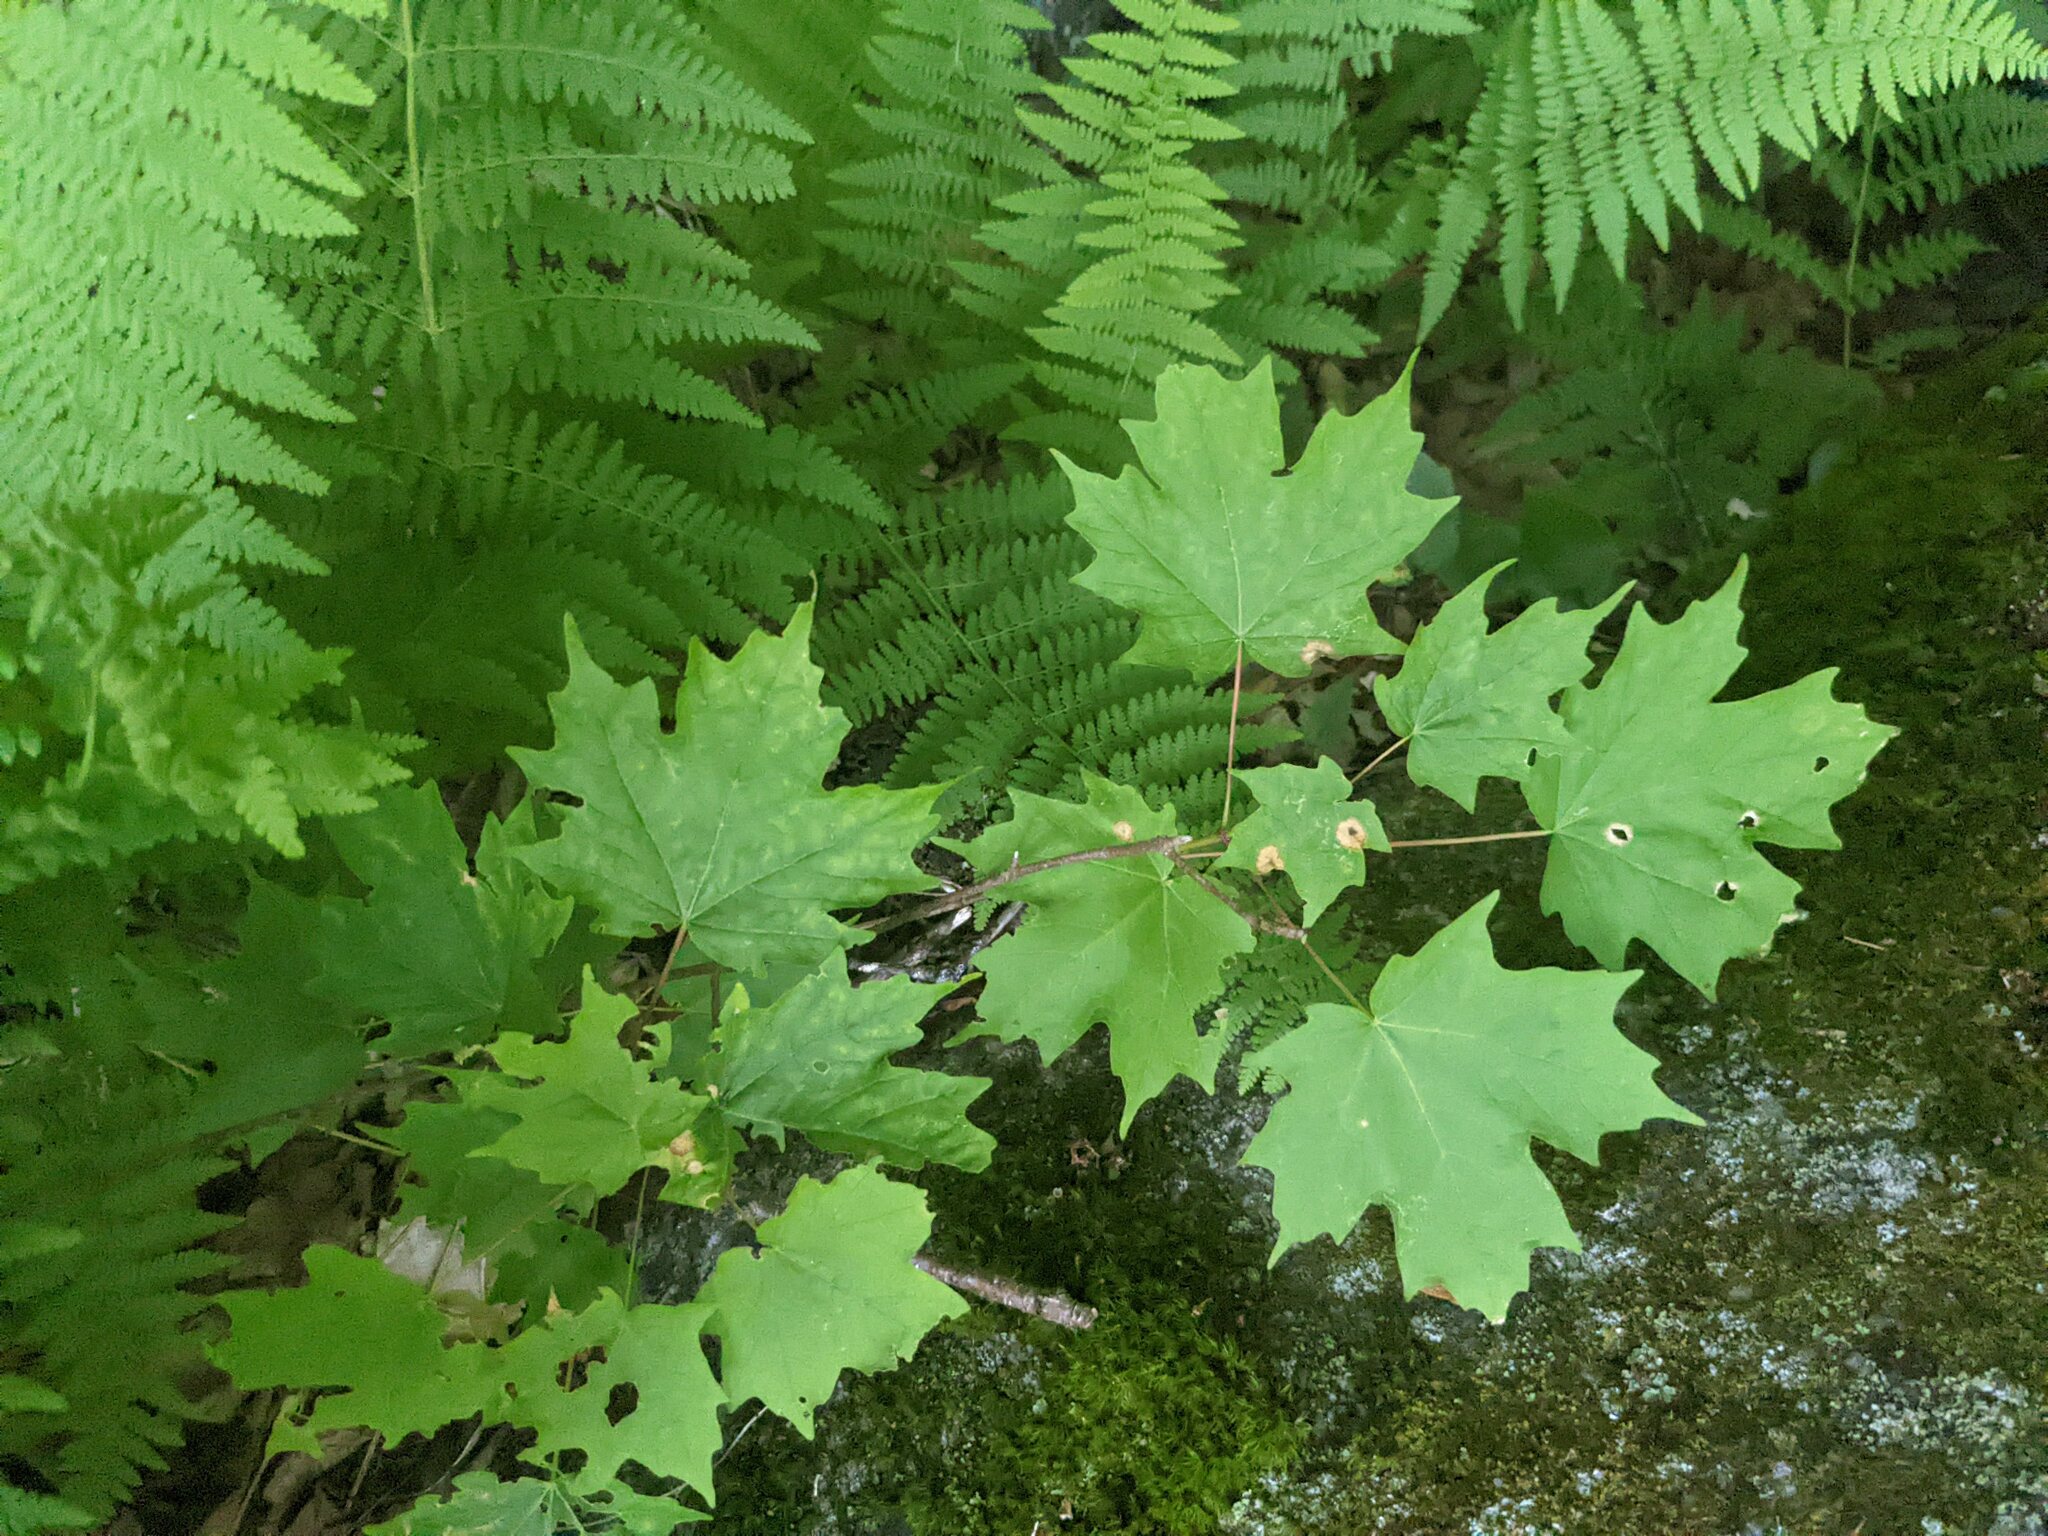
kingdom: Plantae
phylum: Tracheophyta
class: Magnoliopsida
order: Sapindales
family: Sapindaceae
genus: Acer
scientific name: Acer saccharum
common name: Sugar maple
